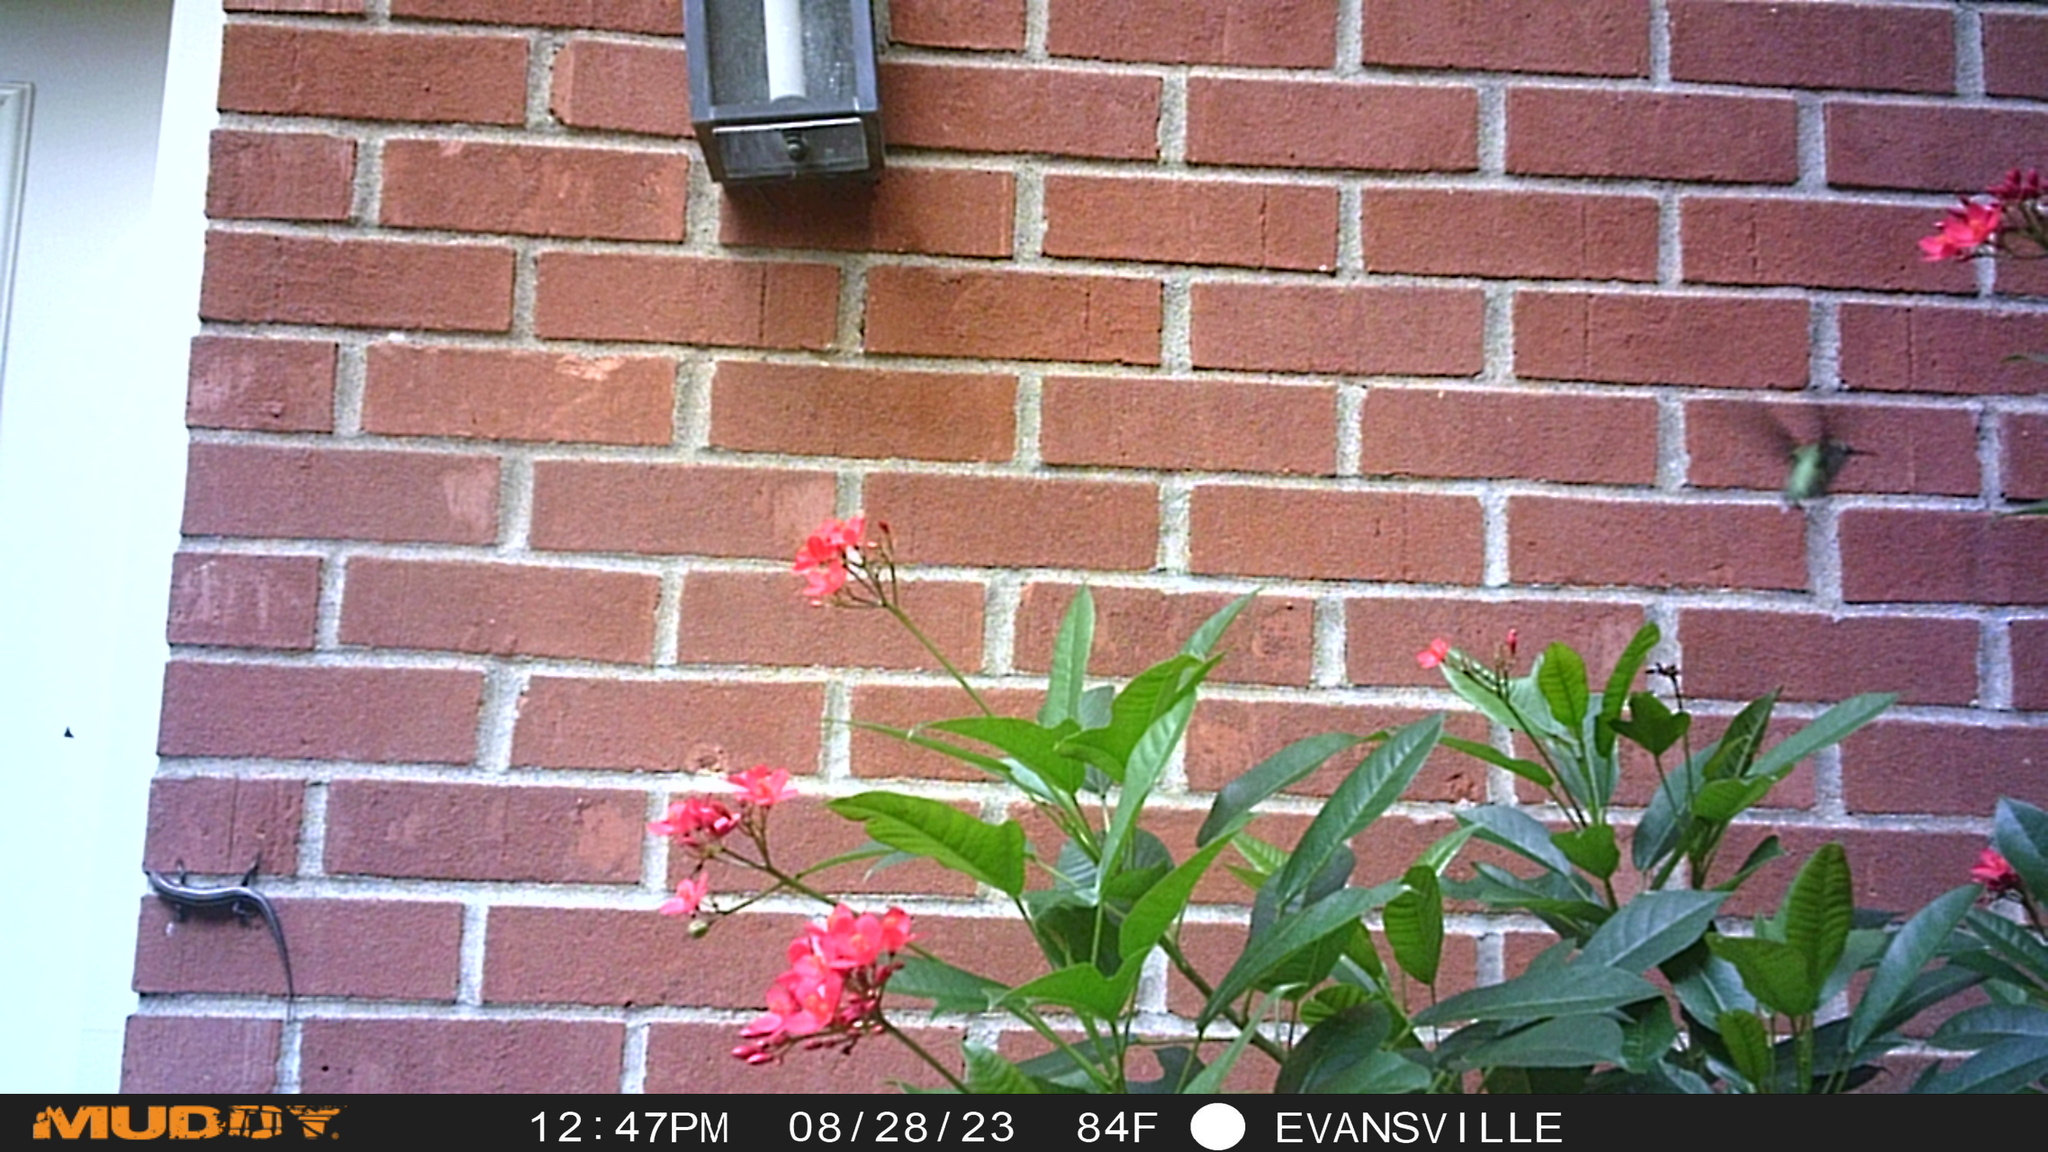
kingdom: Animalia
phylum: Chordata
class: Squamata
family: Scincidae
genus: Plestiodon
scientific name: Plestiodon fasciatus
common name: Five-lined skink
